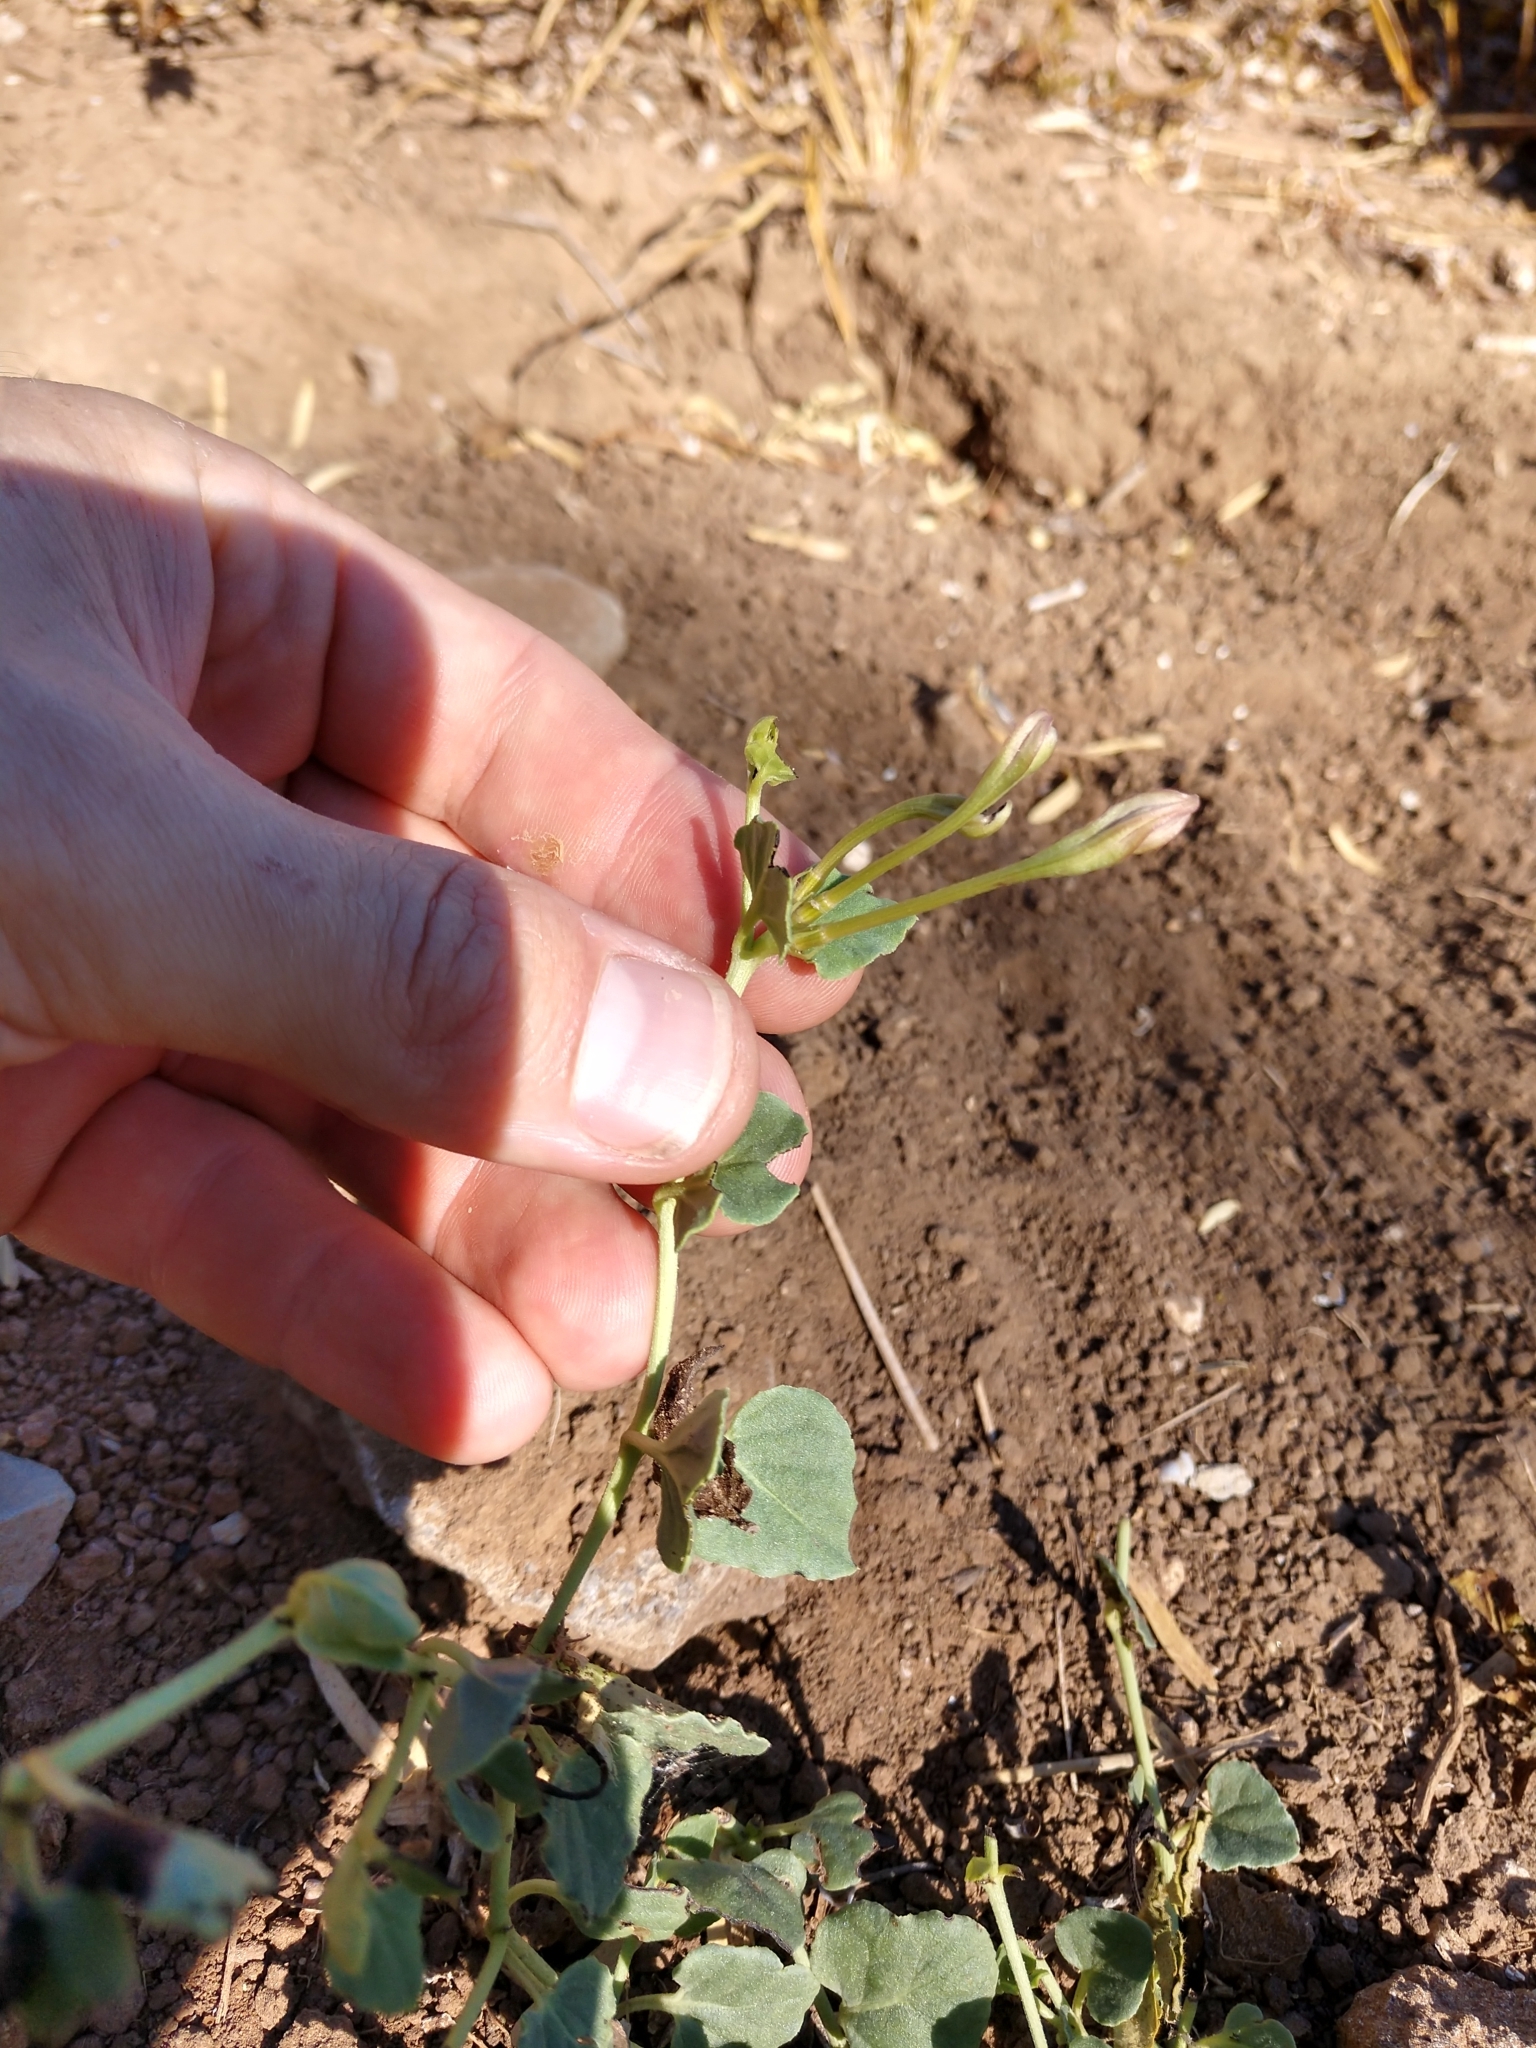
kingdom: Plantae
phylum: Tracheophyta
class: Magnoliopsida
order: Caryophyllales
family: Nyctaginaceae
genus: Acleisanthes
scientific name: Acleisanthes obtusa
